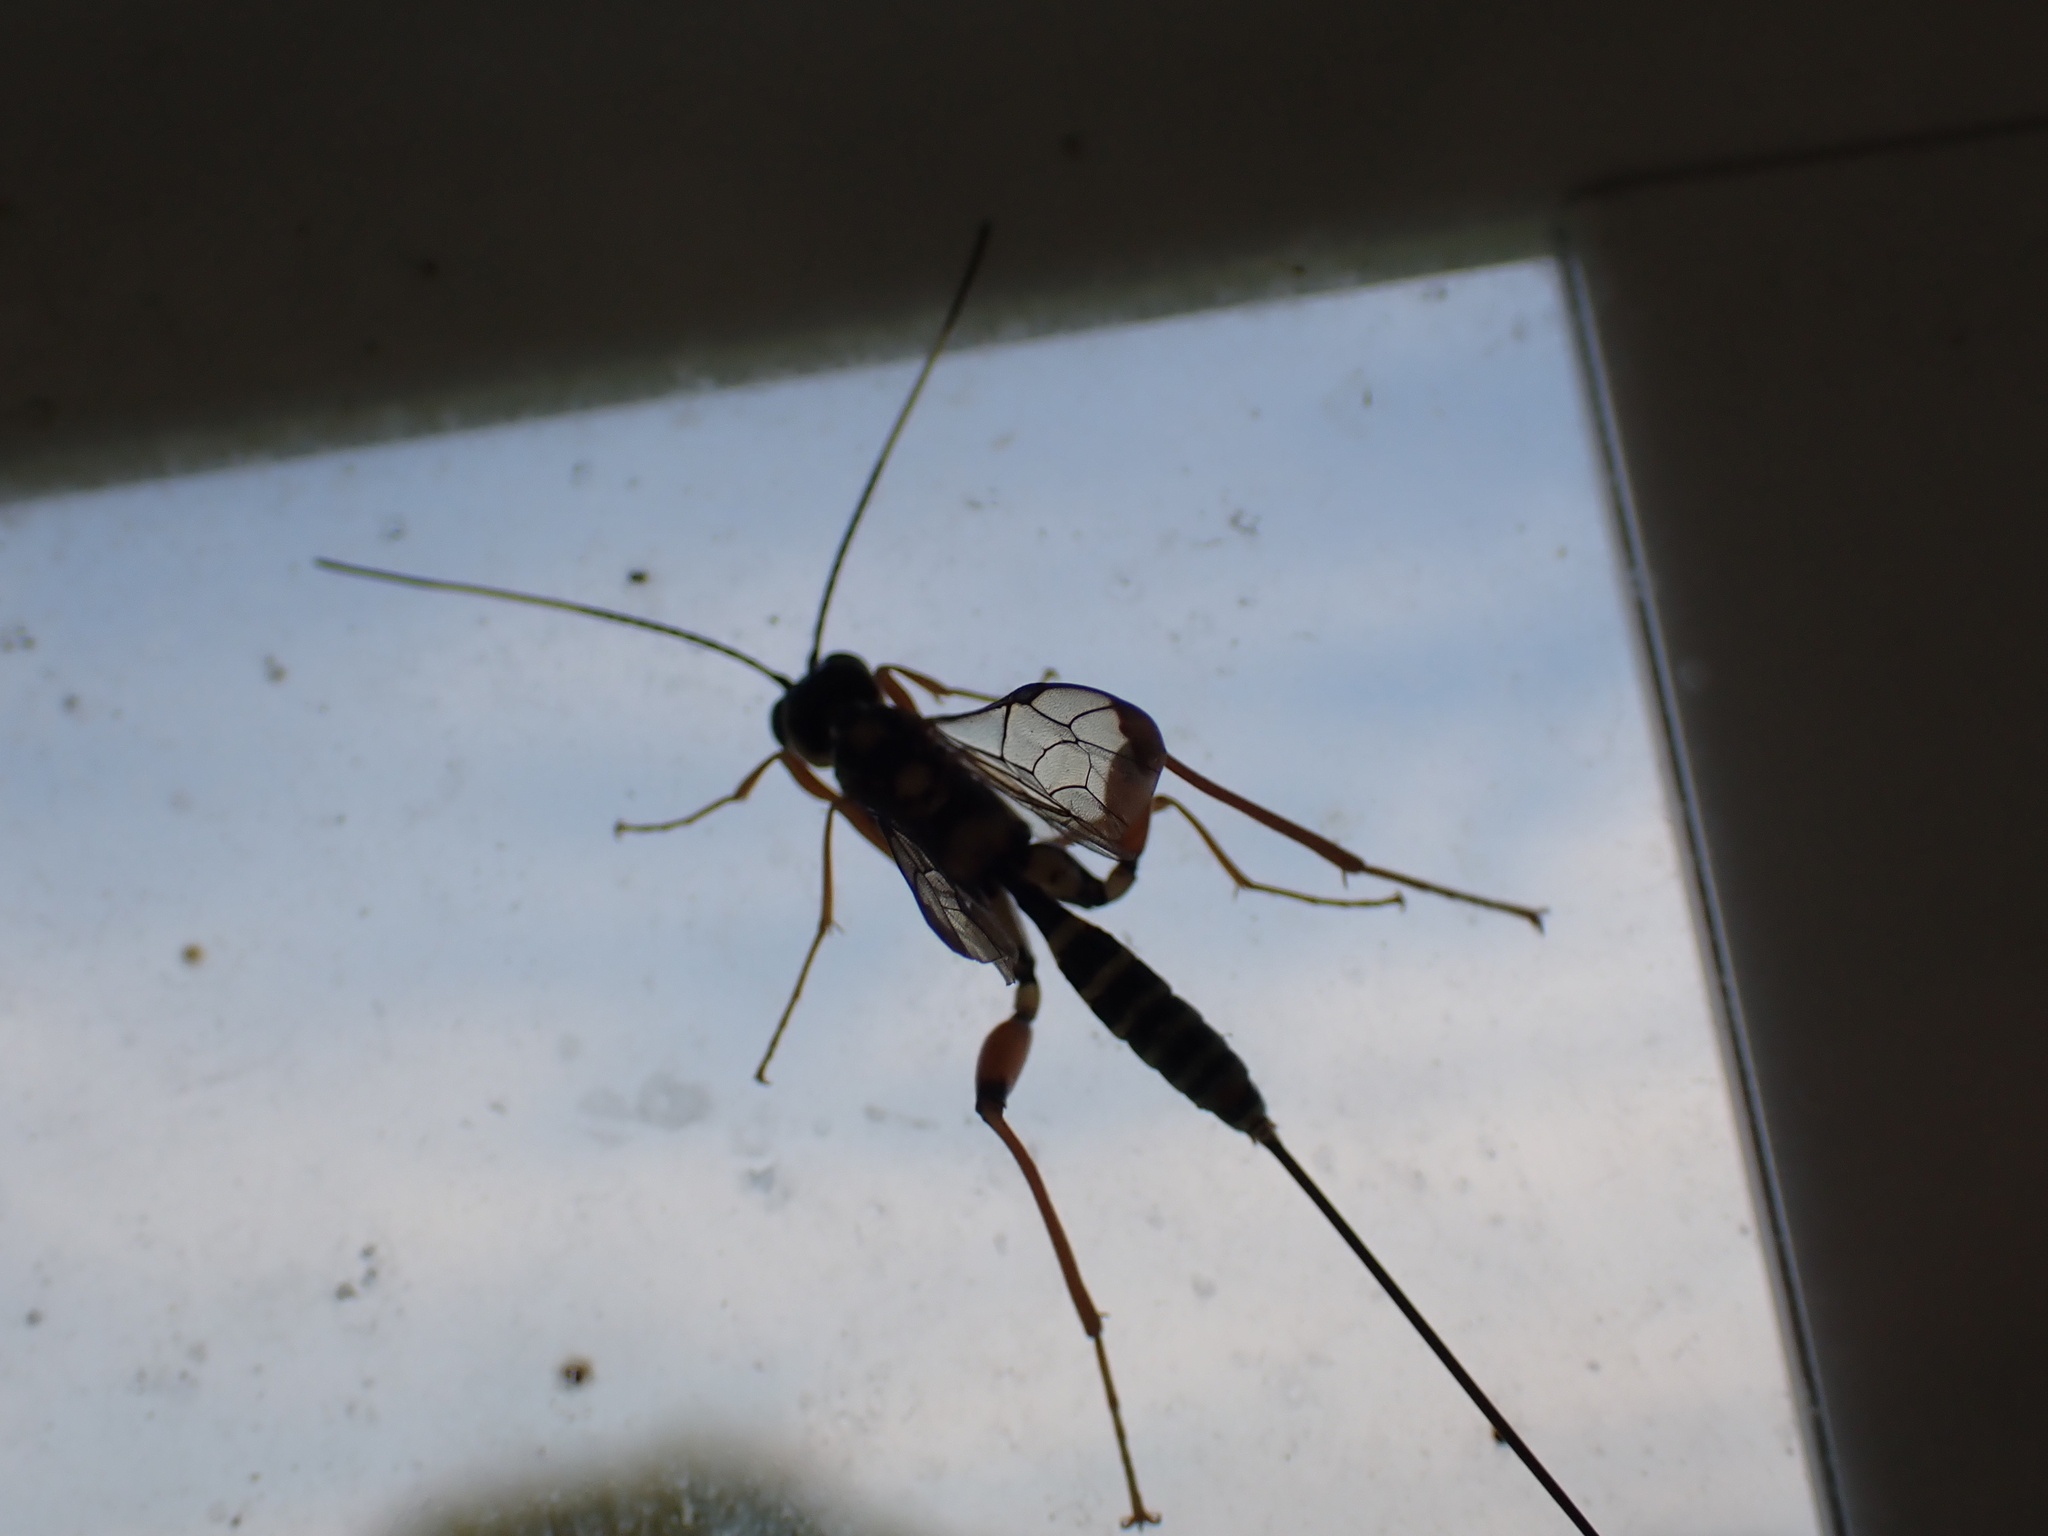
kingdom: Animalia
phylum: Arthropoda
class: Insecta
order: Hymenoptera
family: Ichneumonidae
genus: Arotes
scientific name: Arotes decorus
